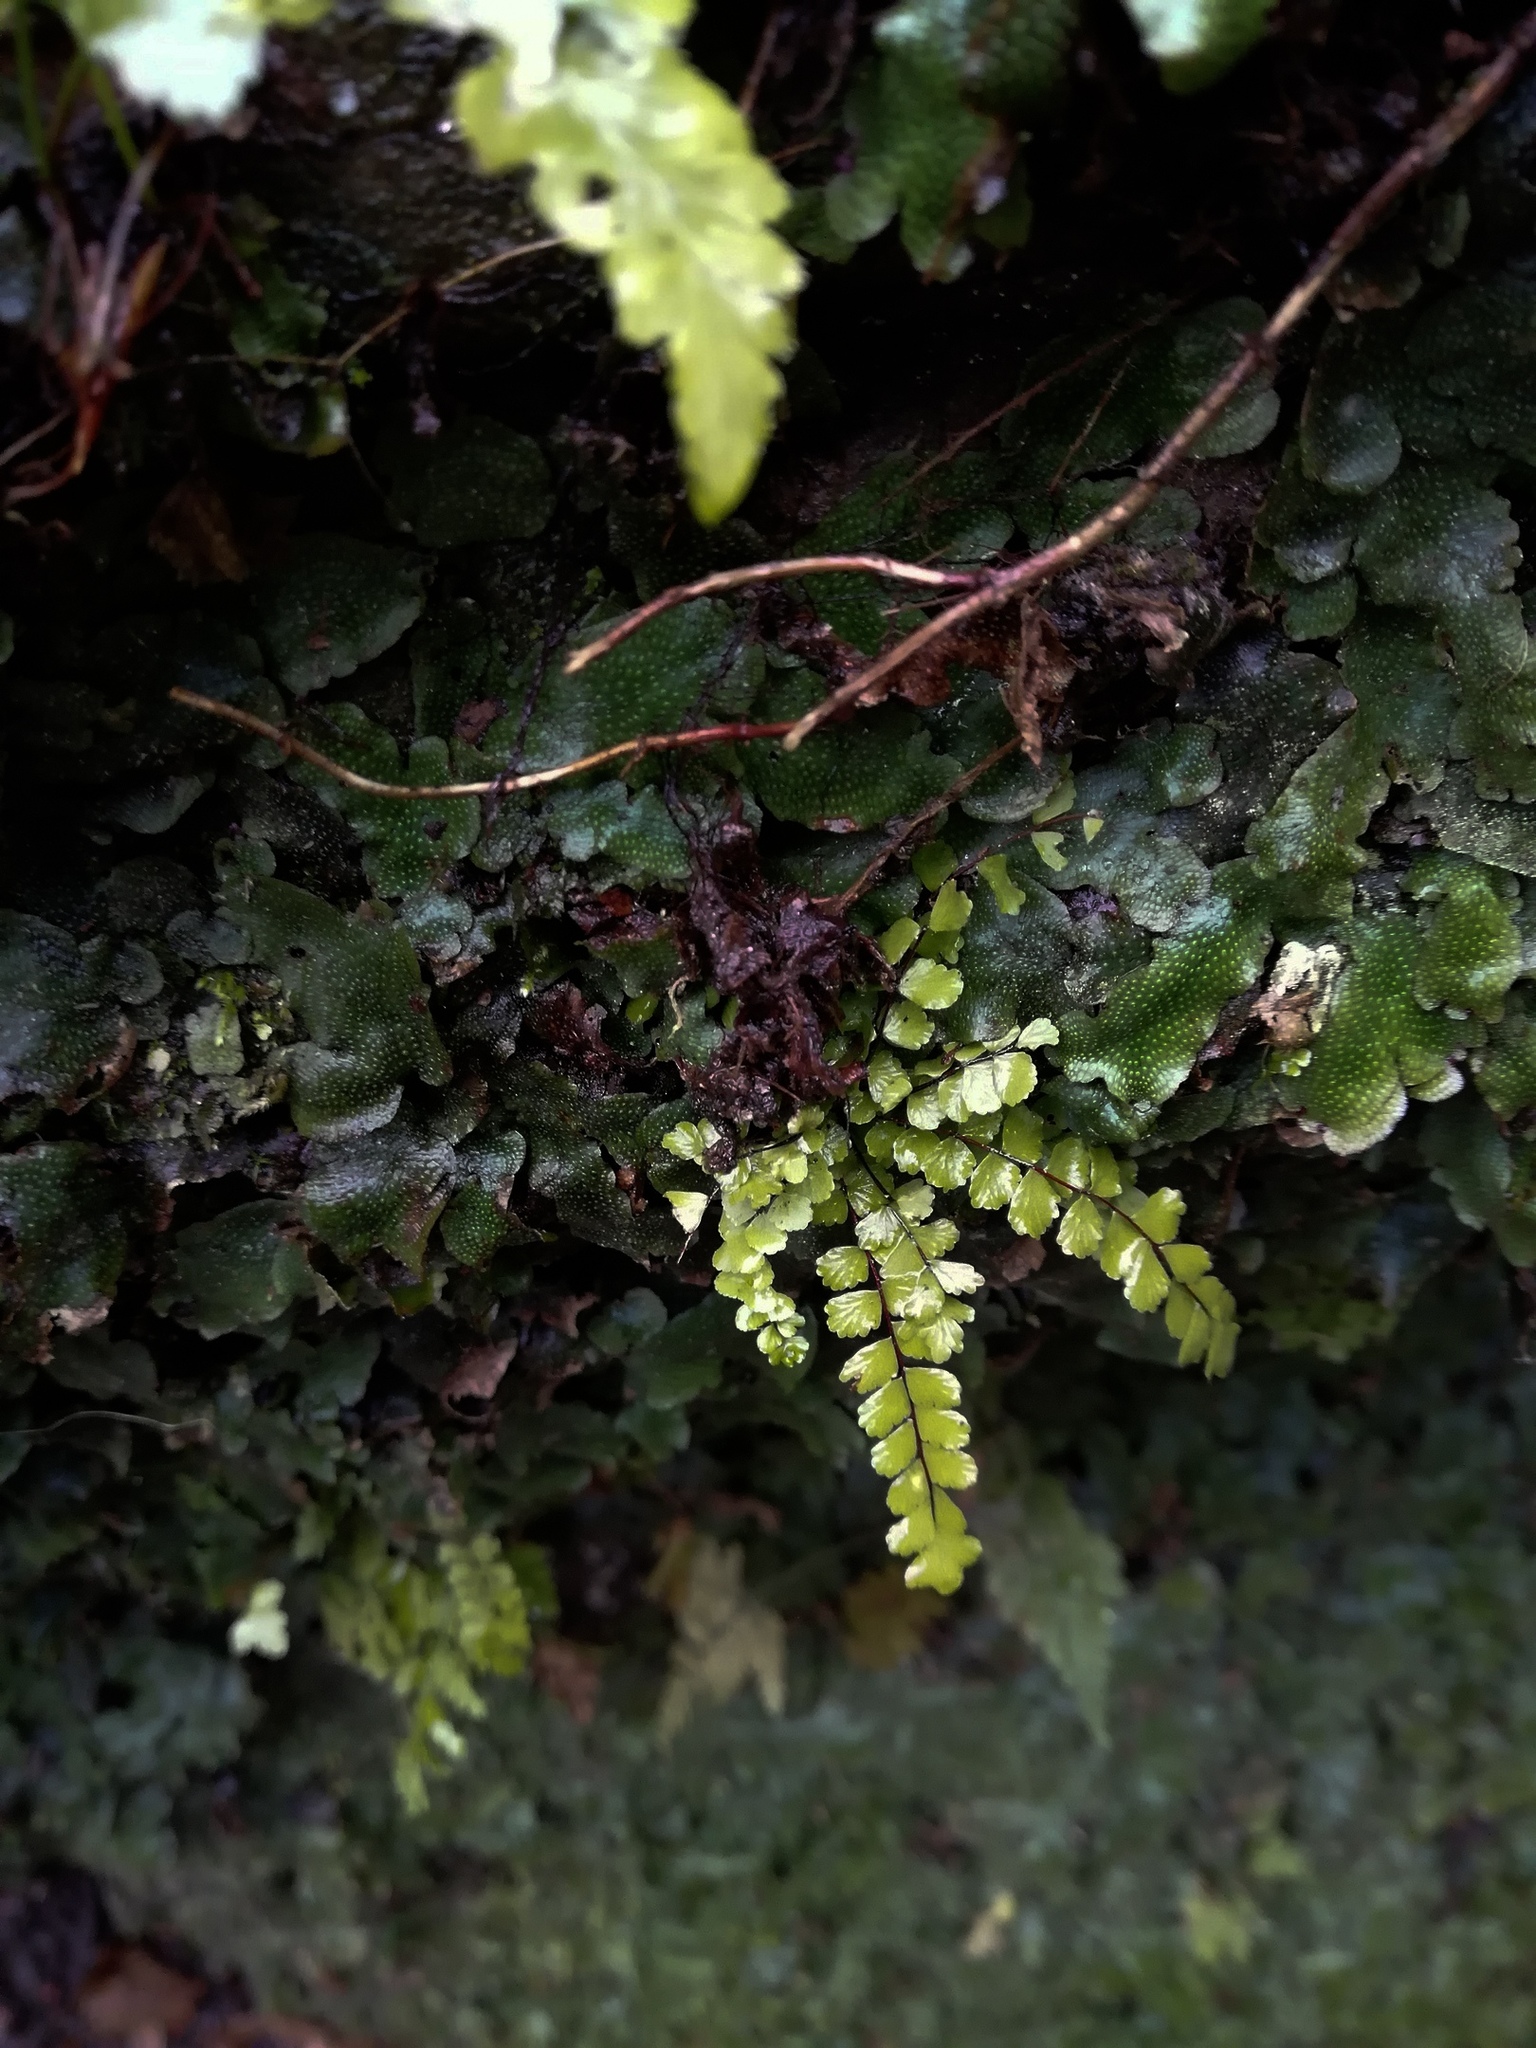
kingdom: Plantae
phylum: Tracheophyta
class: Polypodiopsida
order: Polypodiales
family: Aspleniaceae
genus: Asplenium
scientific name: Asplenium trichomanes
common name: Maidenhair spleenwort
